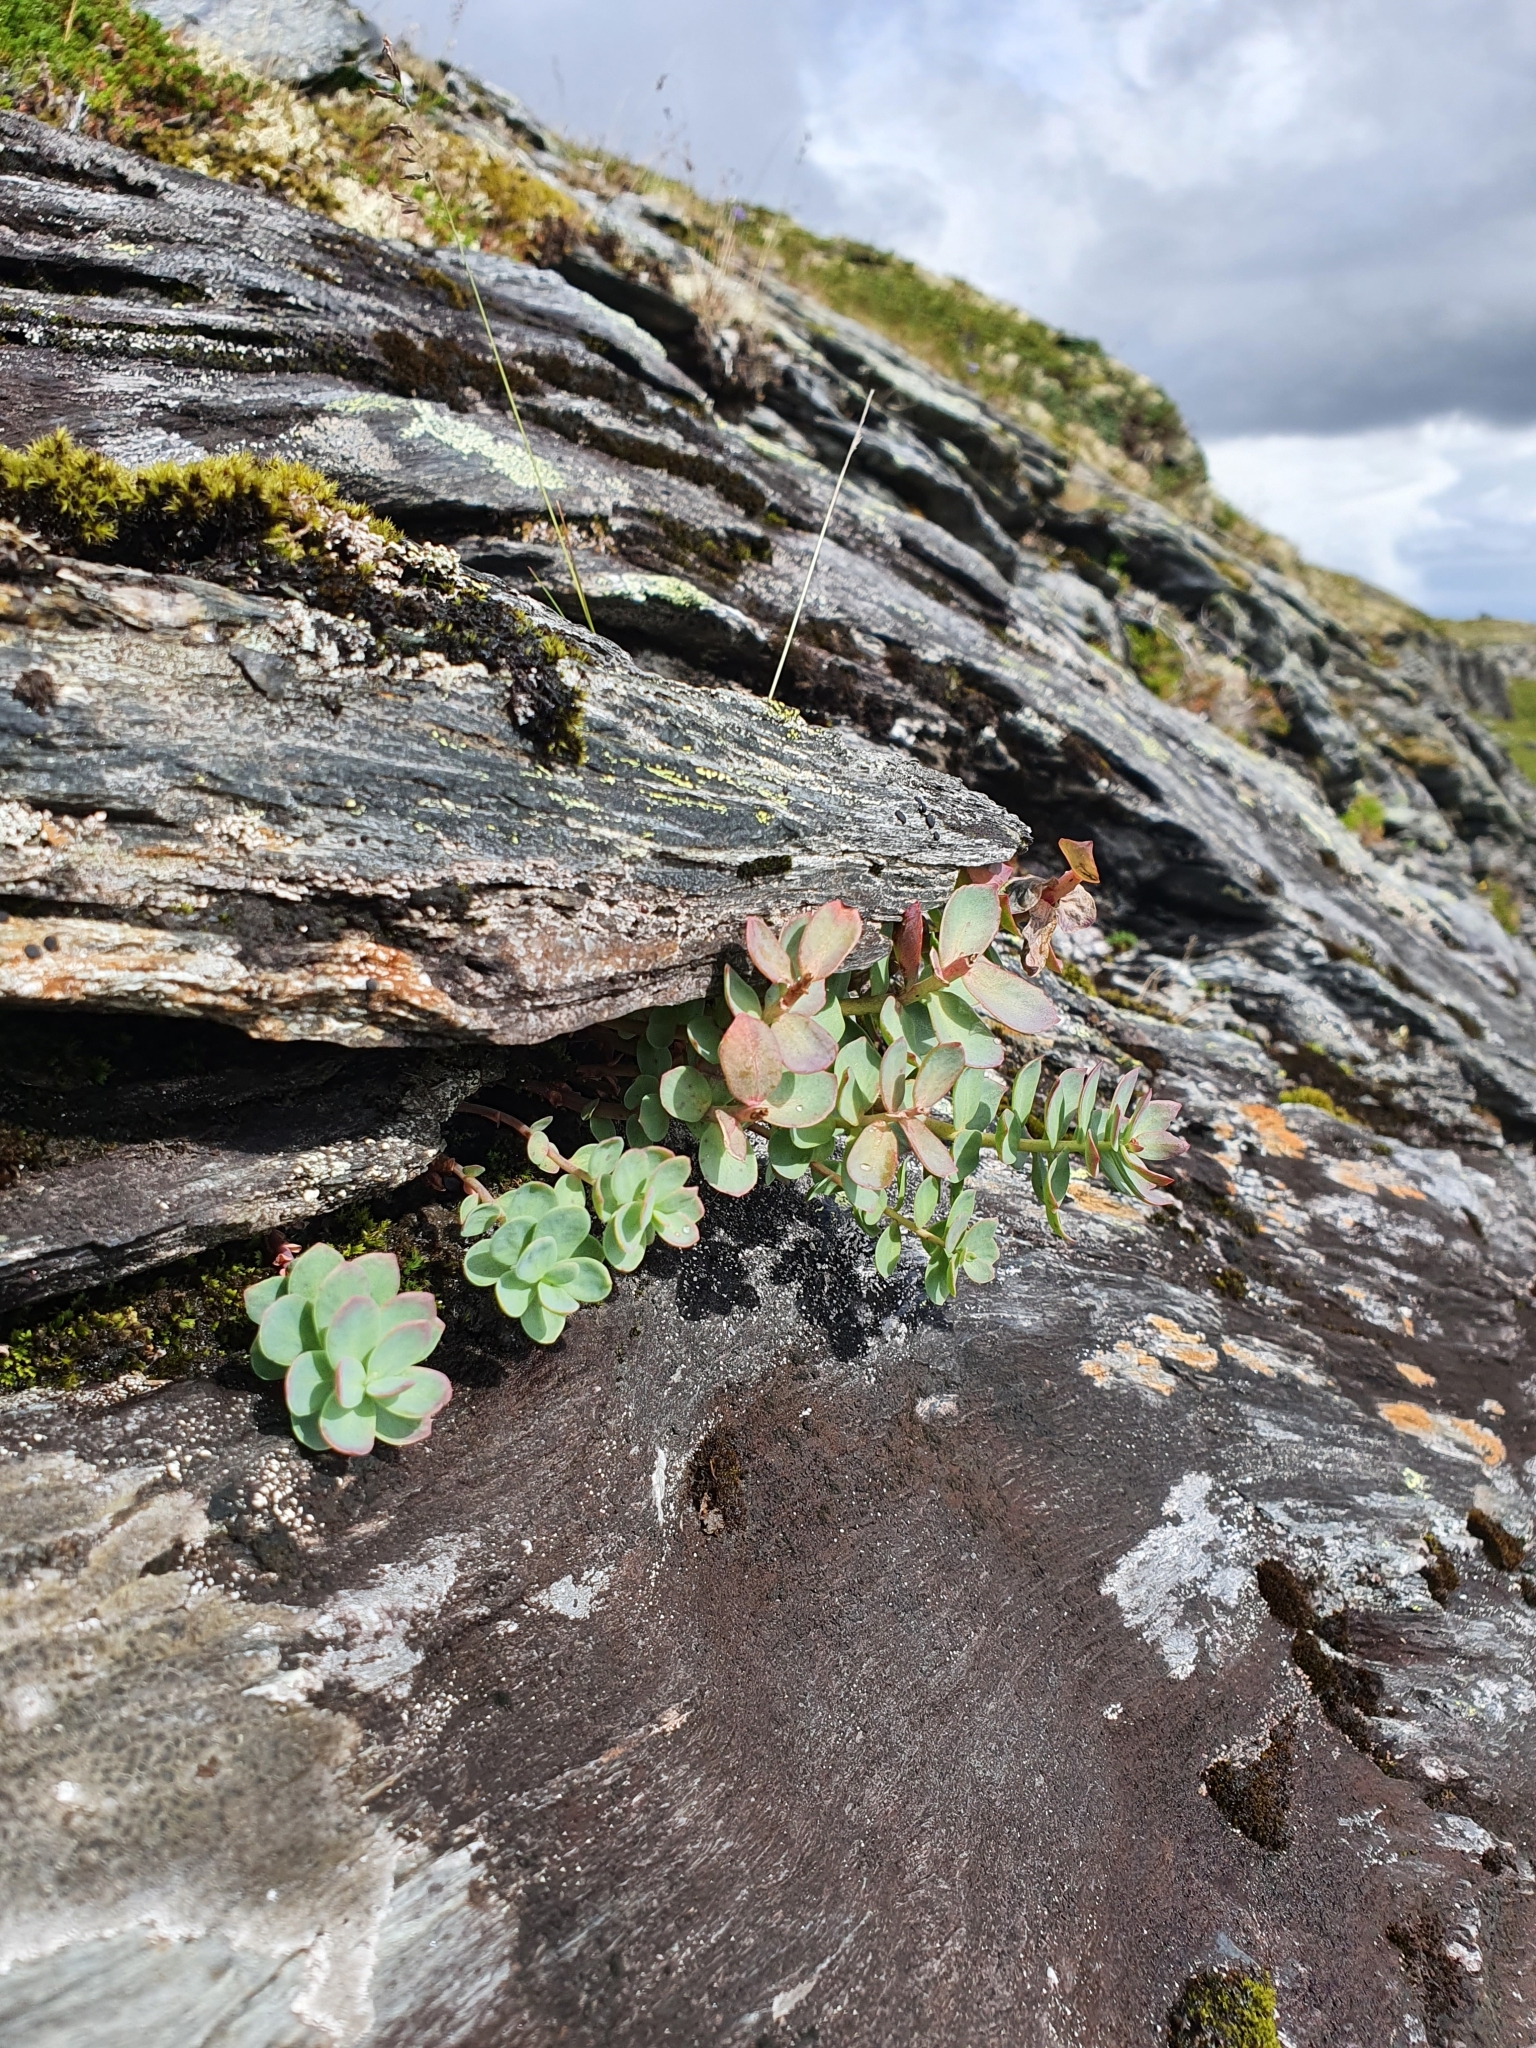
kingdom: Plantae
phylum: Tracheophyta
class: Magnoliopsida
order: Saxifragales
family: Crassulaceae
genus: Rhodiola
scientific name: Rhodiola rosea
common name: Roseroot
